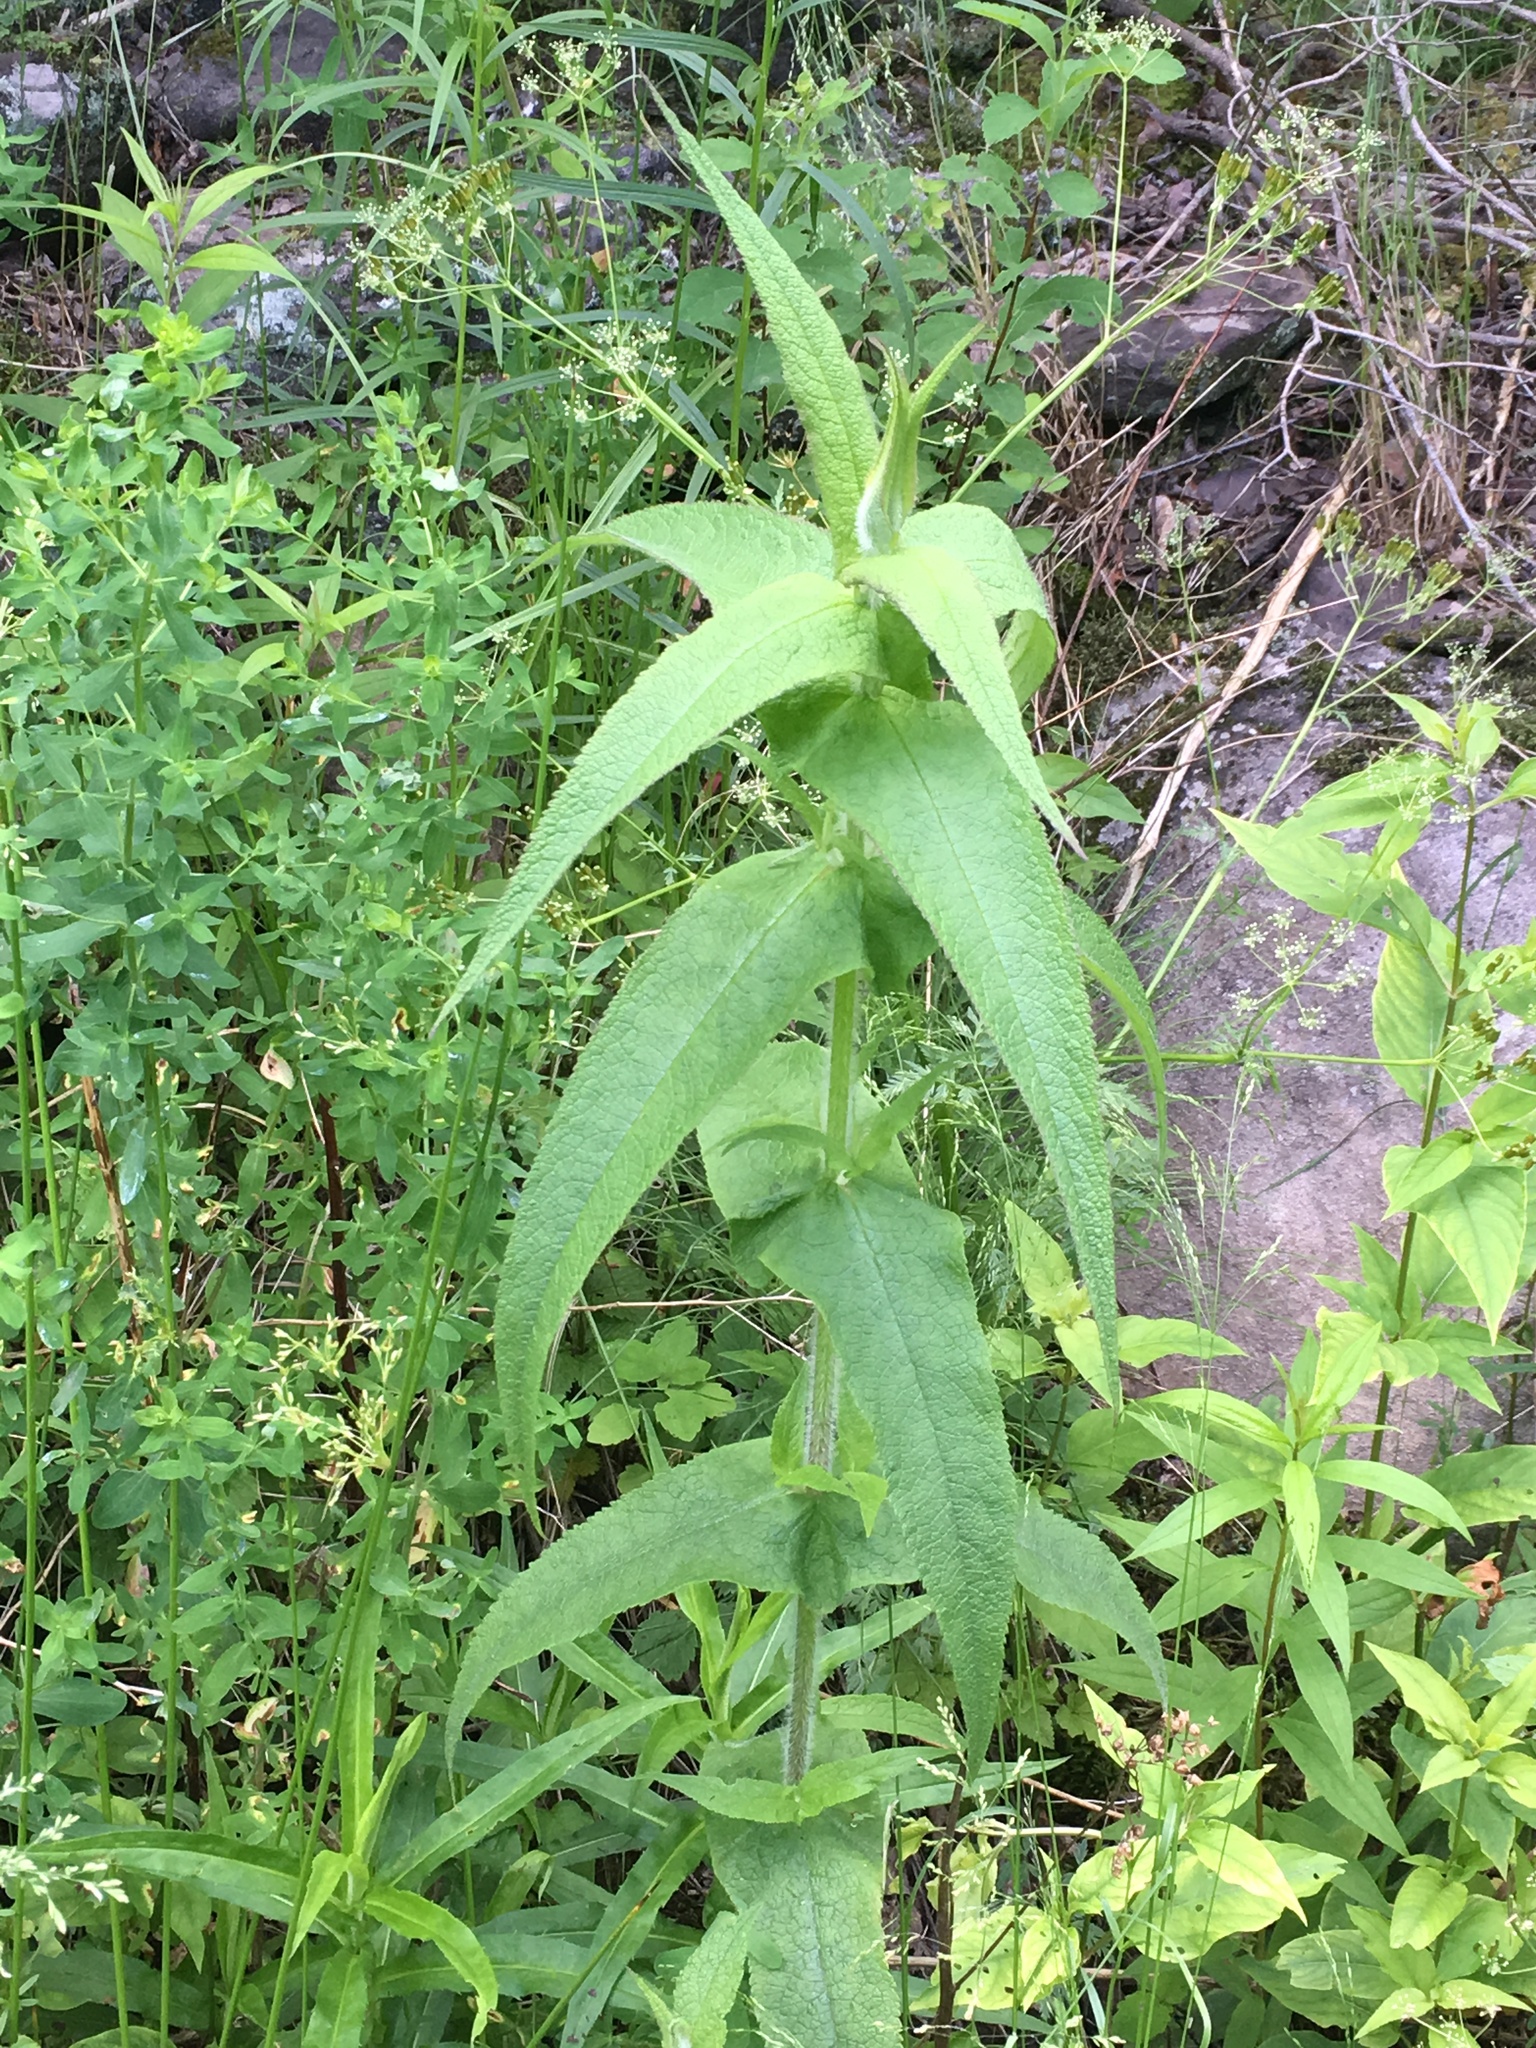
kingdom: Plantae
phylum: Tracheophyta
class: Magnoliopsida
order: Asterales
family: Asteraceae
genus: Eupatorium
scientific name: Eupatorium perfoliatum
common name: Boneset
